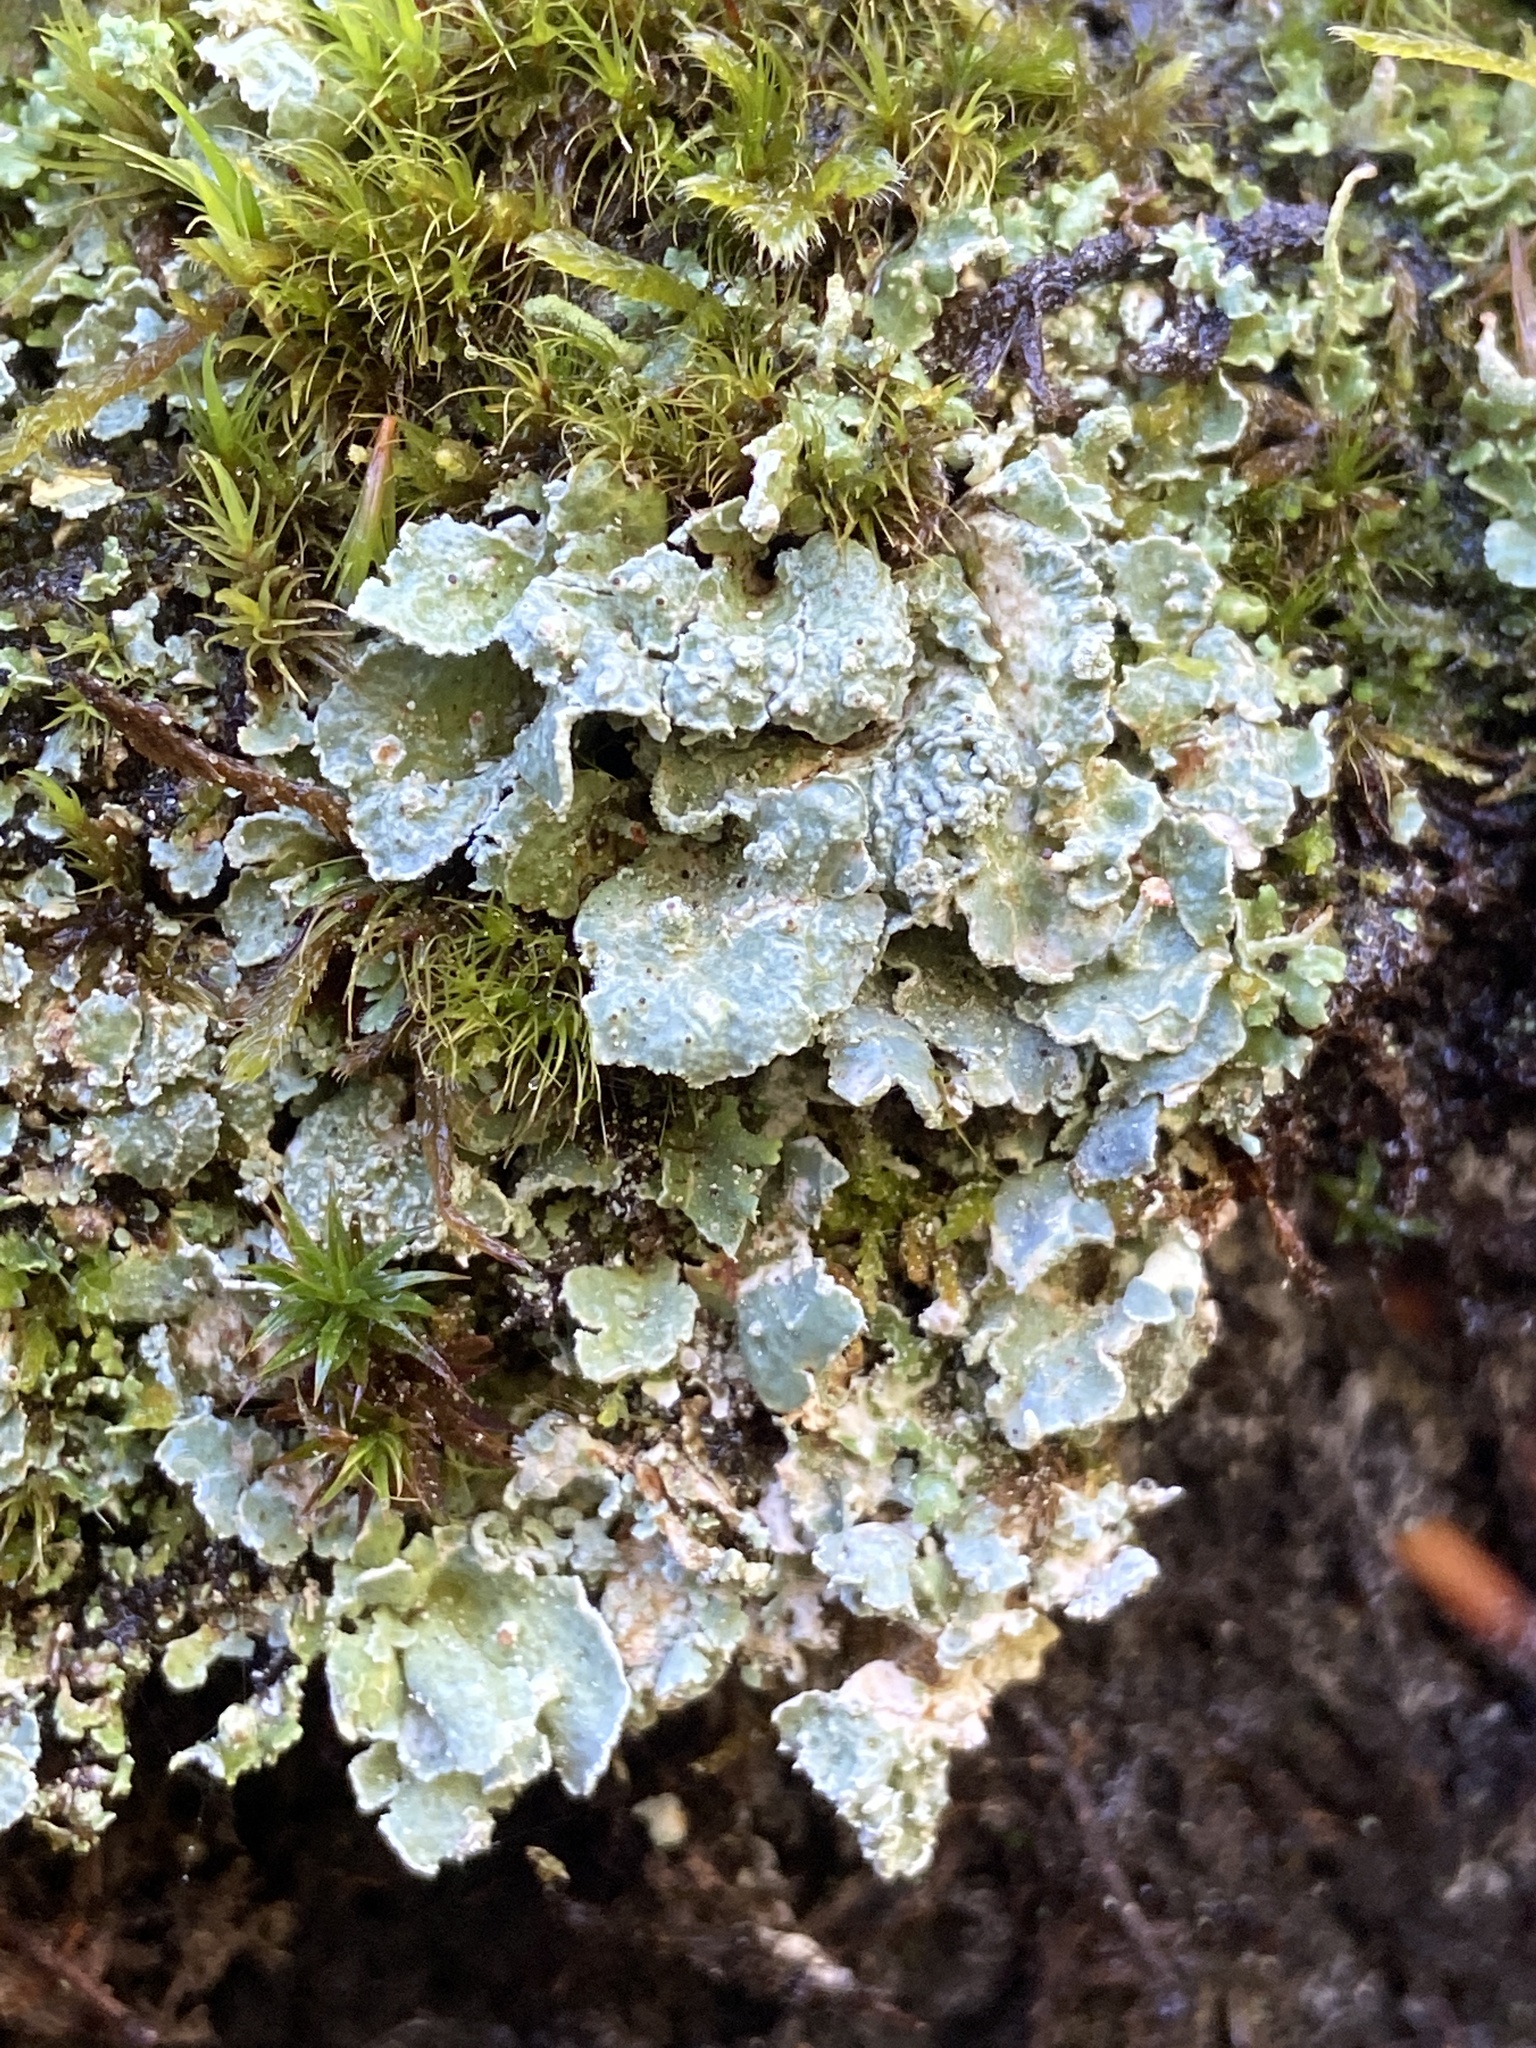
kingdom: Fungi
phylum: Ascomycota
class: Lecanoromycetes
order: Lecanorales
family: Cladoniaceae
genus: Cladonia
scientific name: Cladonia digitata
